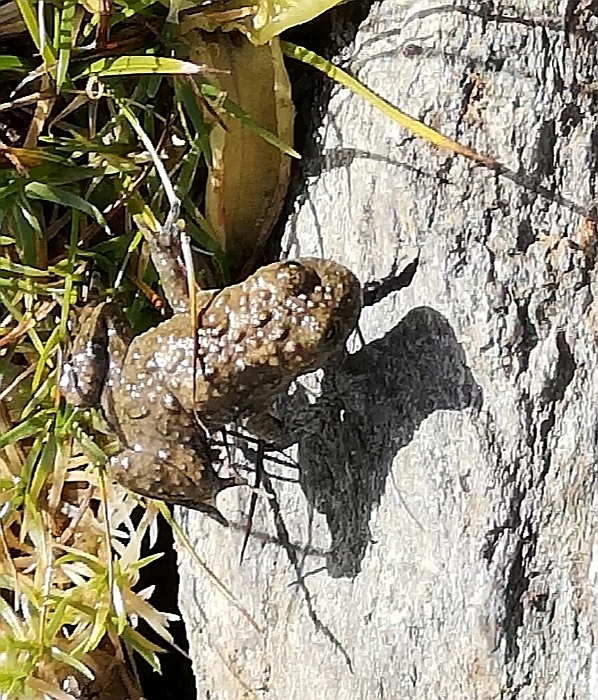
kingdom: Animalia
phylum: Chordata
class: Amphibia
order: Anura
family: Bombinatoridae
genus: Bombina
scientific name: Bombina variegata
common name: Yellow-bellied toad
